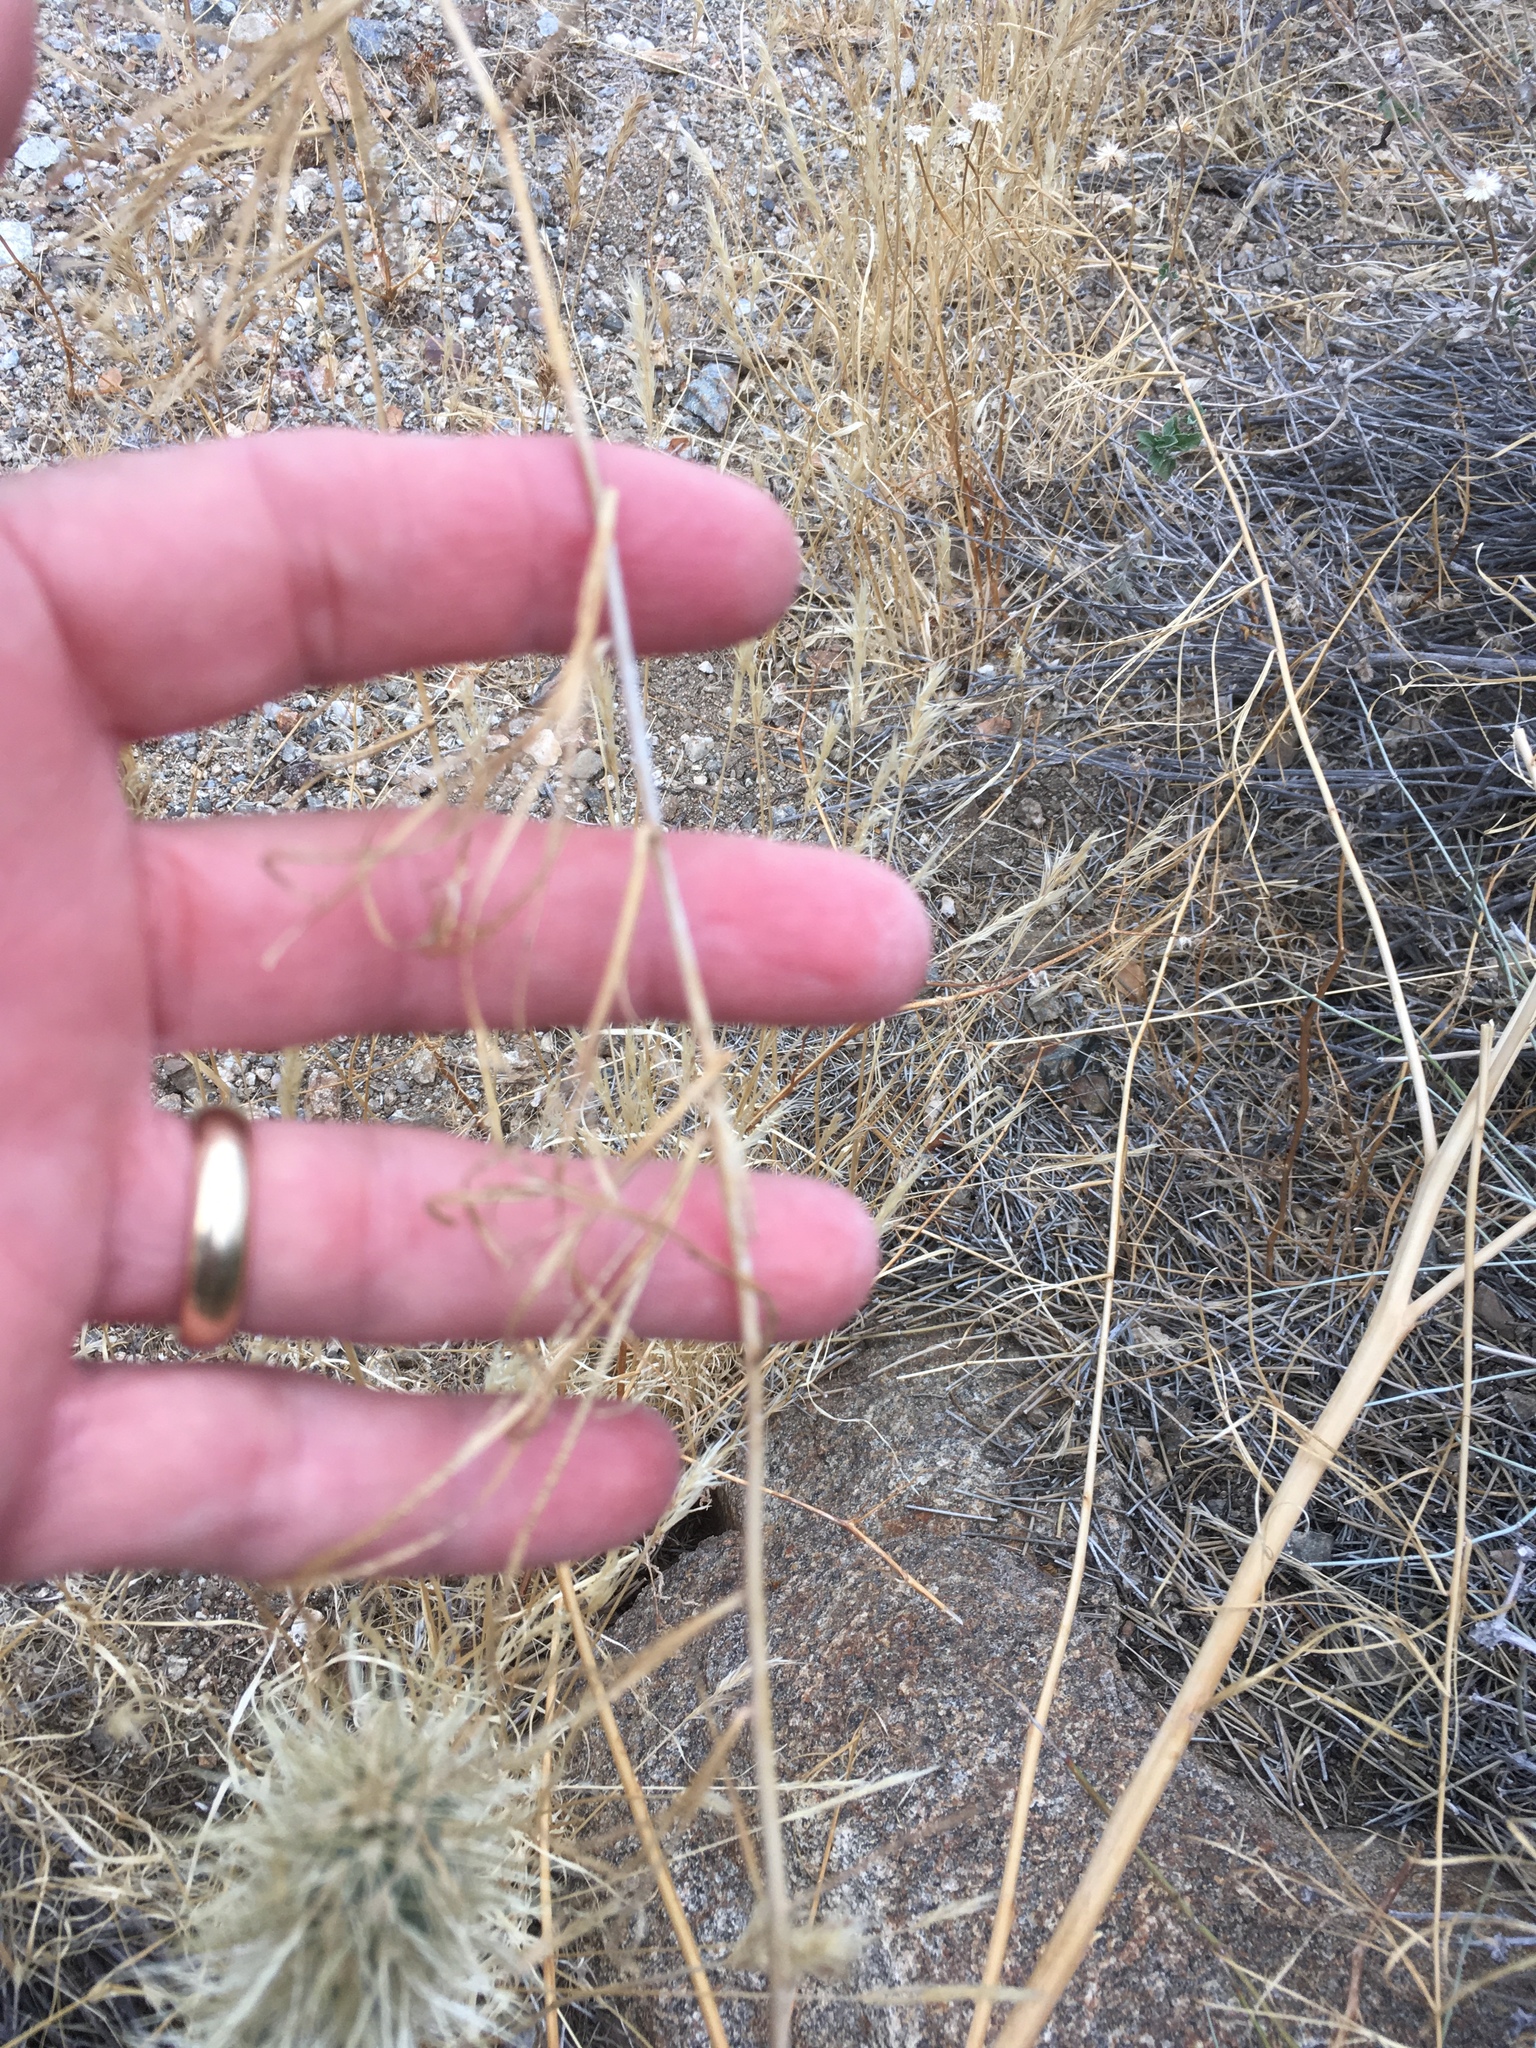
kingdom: Plantae
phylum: Tracheophyta
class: Magnoliopsida
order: Myrtales
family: Onagraceae
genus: Eulobus
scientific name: Eulobus californicus
